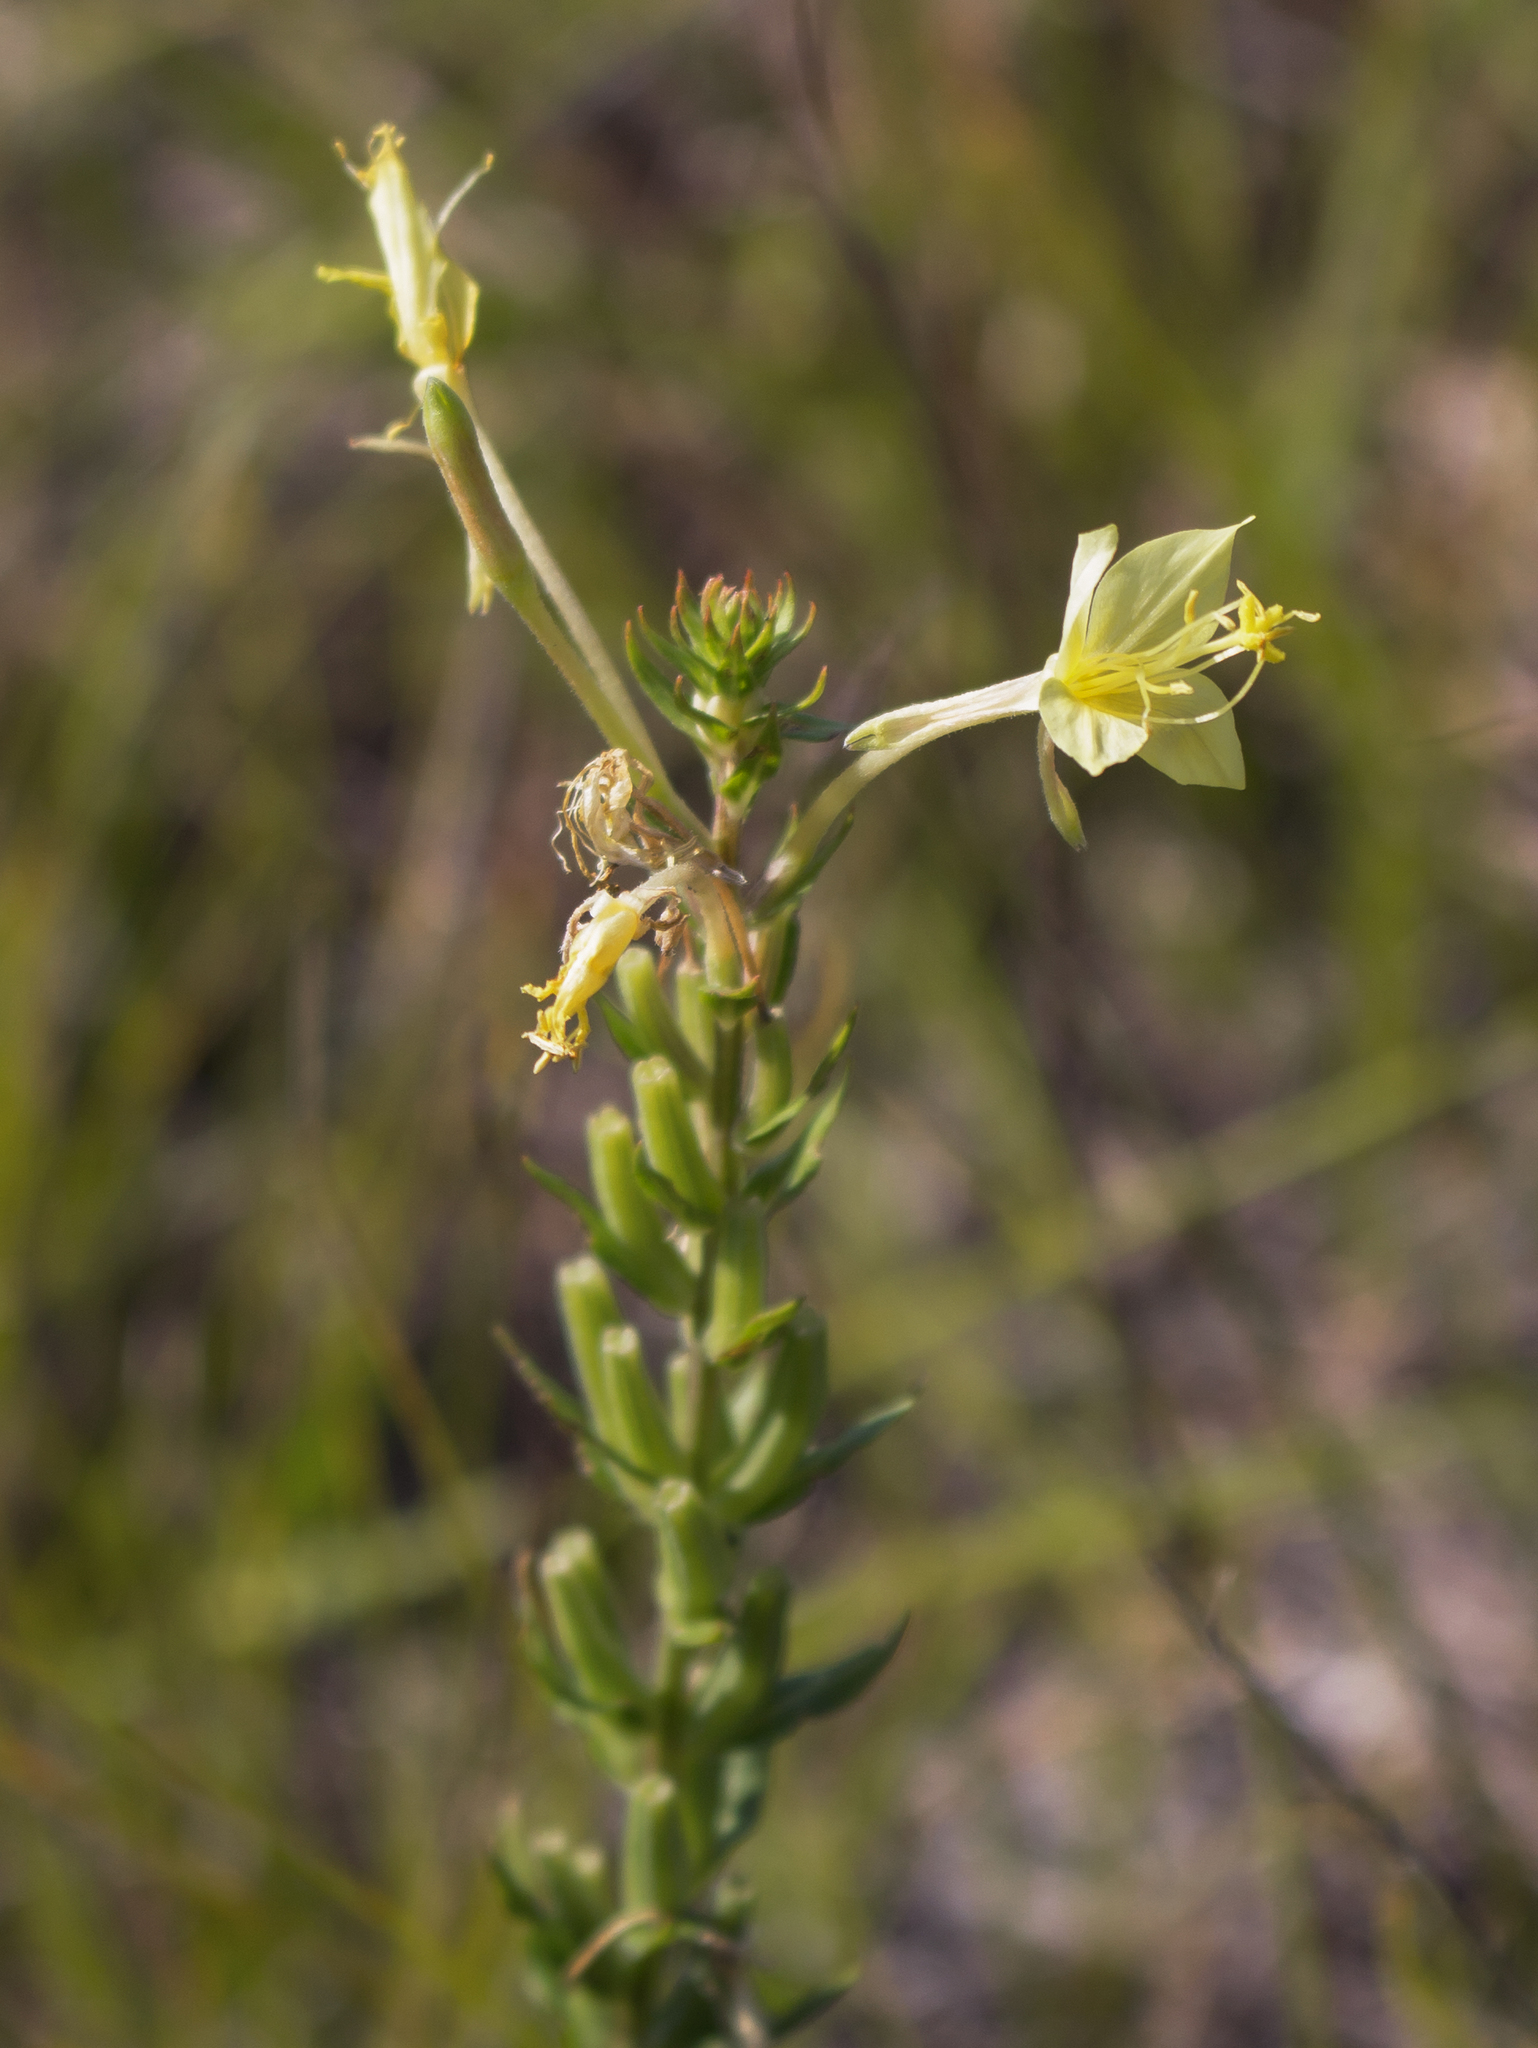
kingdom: Plantae
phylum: Tracheophyta
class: Magnoliopsida
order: Myrtales
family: Onagraceae
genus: Oenothera
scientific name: Oenothera clelandii
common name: Cleland's evening-primrose
